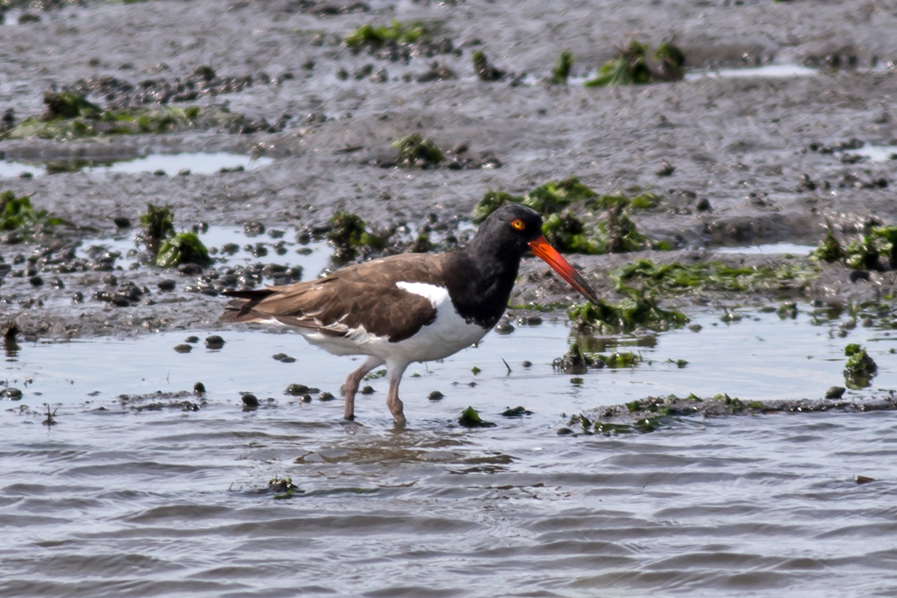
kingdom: Animalia
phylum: Chordata
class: Aves
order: Charadriiformes
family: Haematopodidae
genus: Haematopus
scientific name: Haematopus palliatus
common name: American oystercatcher
